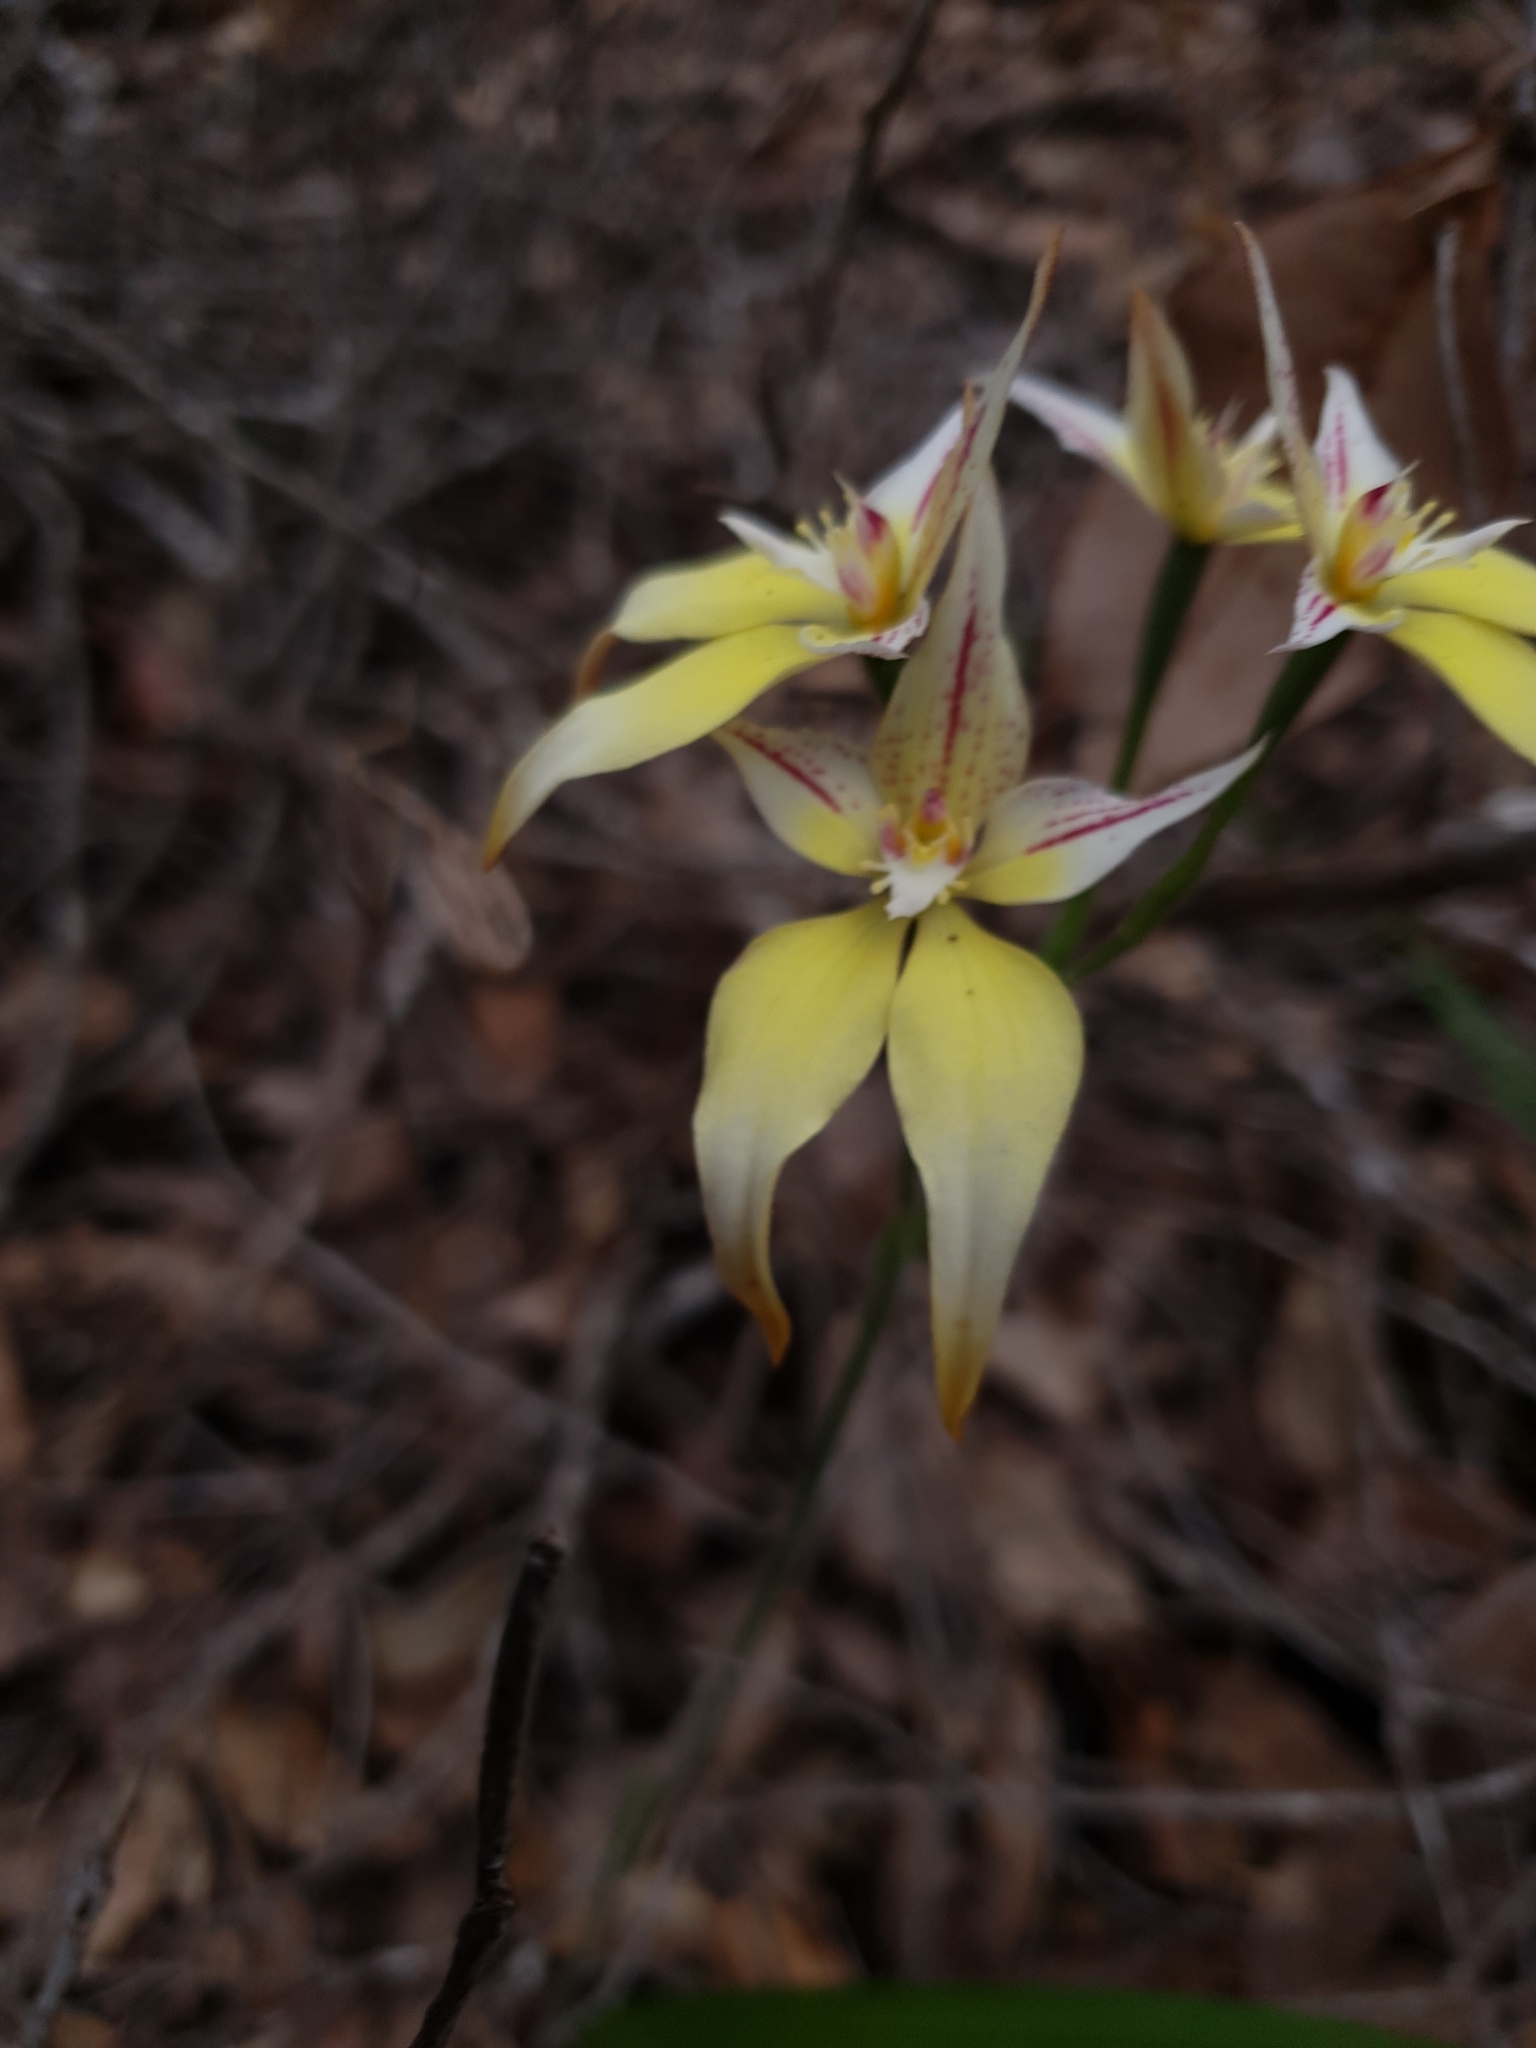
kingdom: Plantae
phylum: Tracheophyta
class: Liliopsida
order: Asparagales
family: Orchidaceae
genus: Caladenia
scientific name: Caladenia flava
